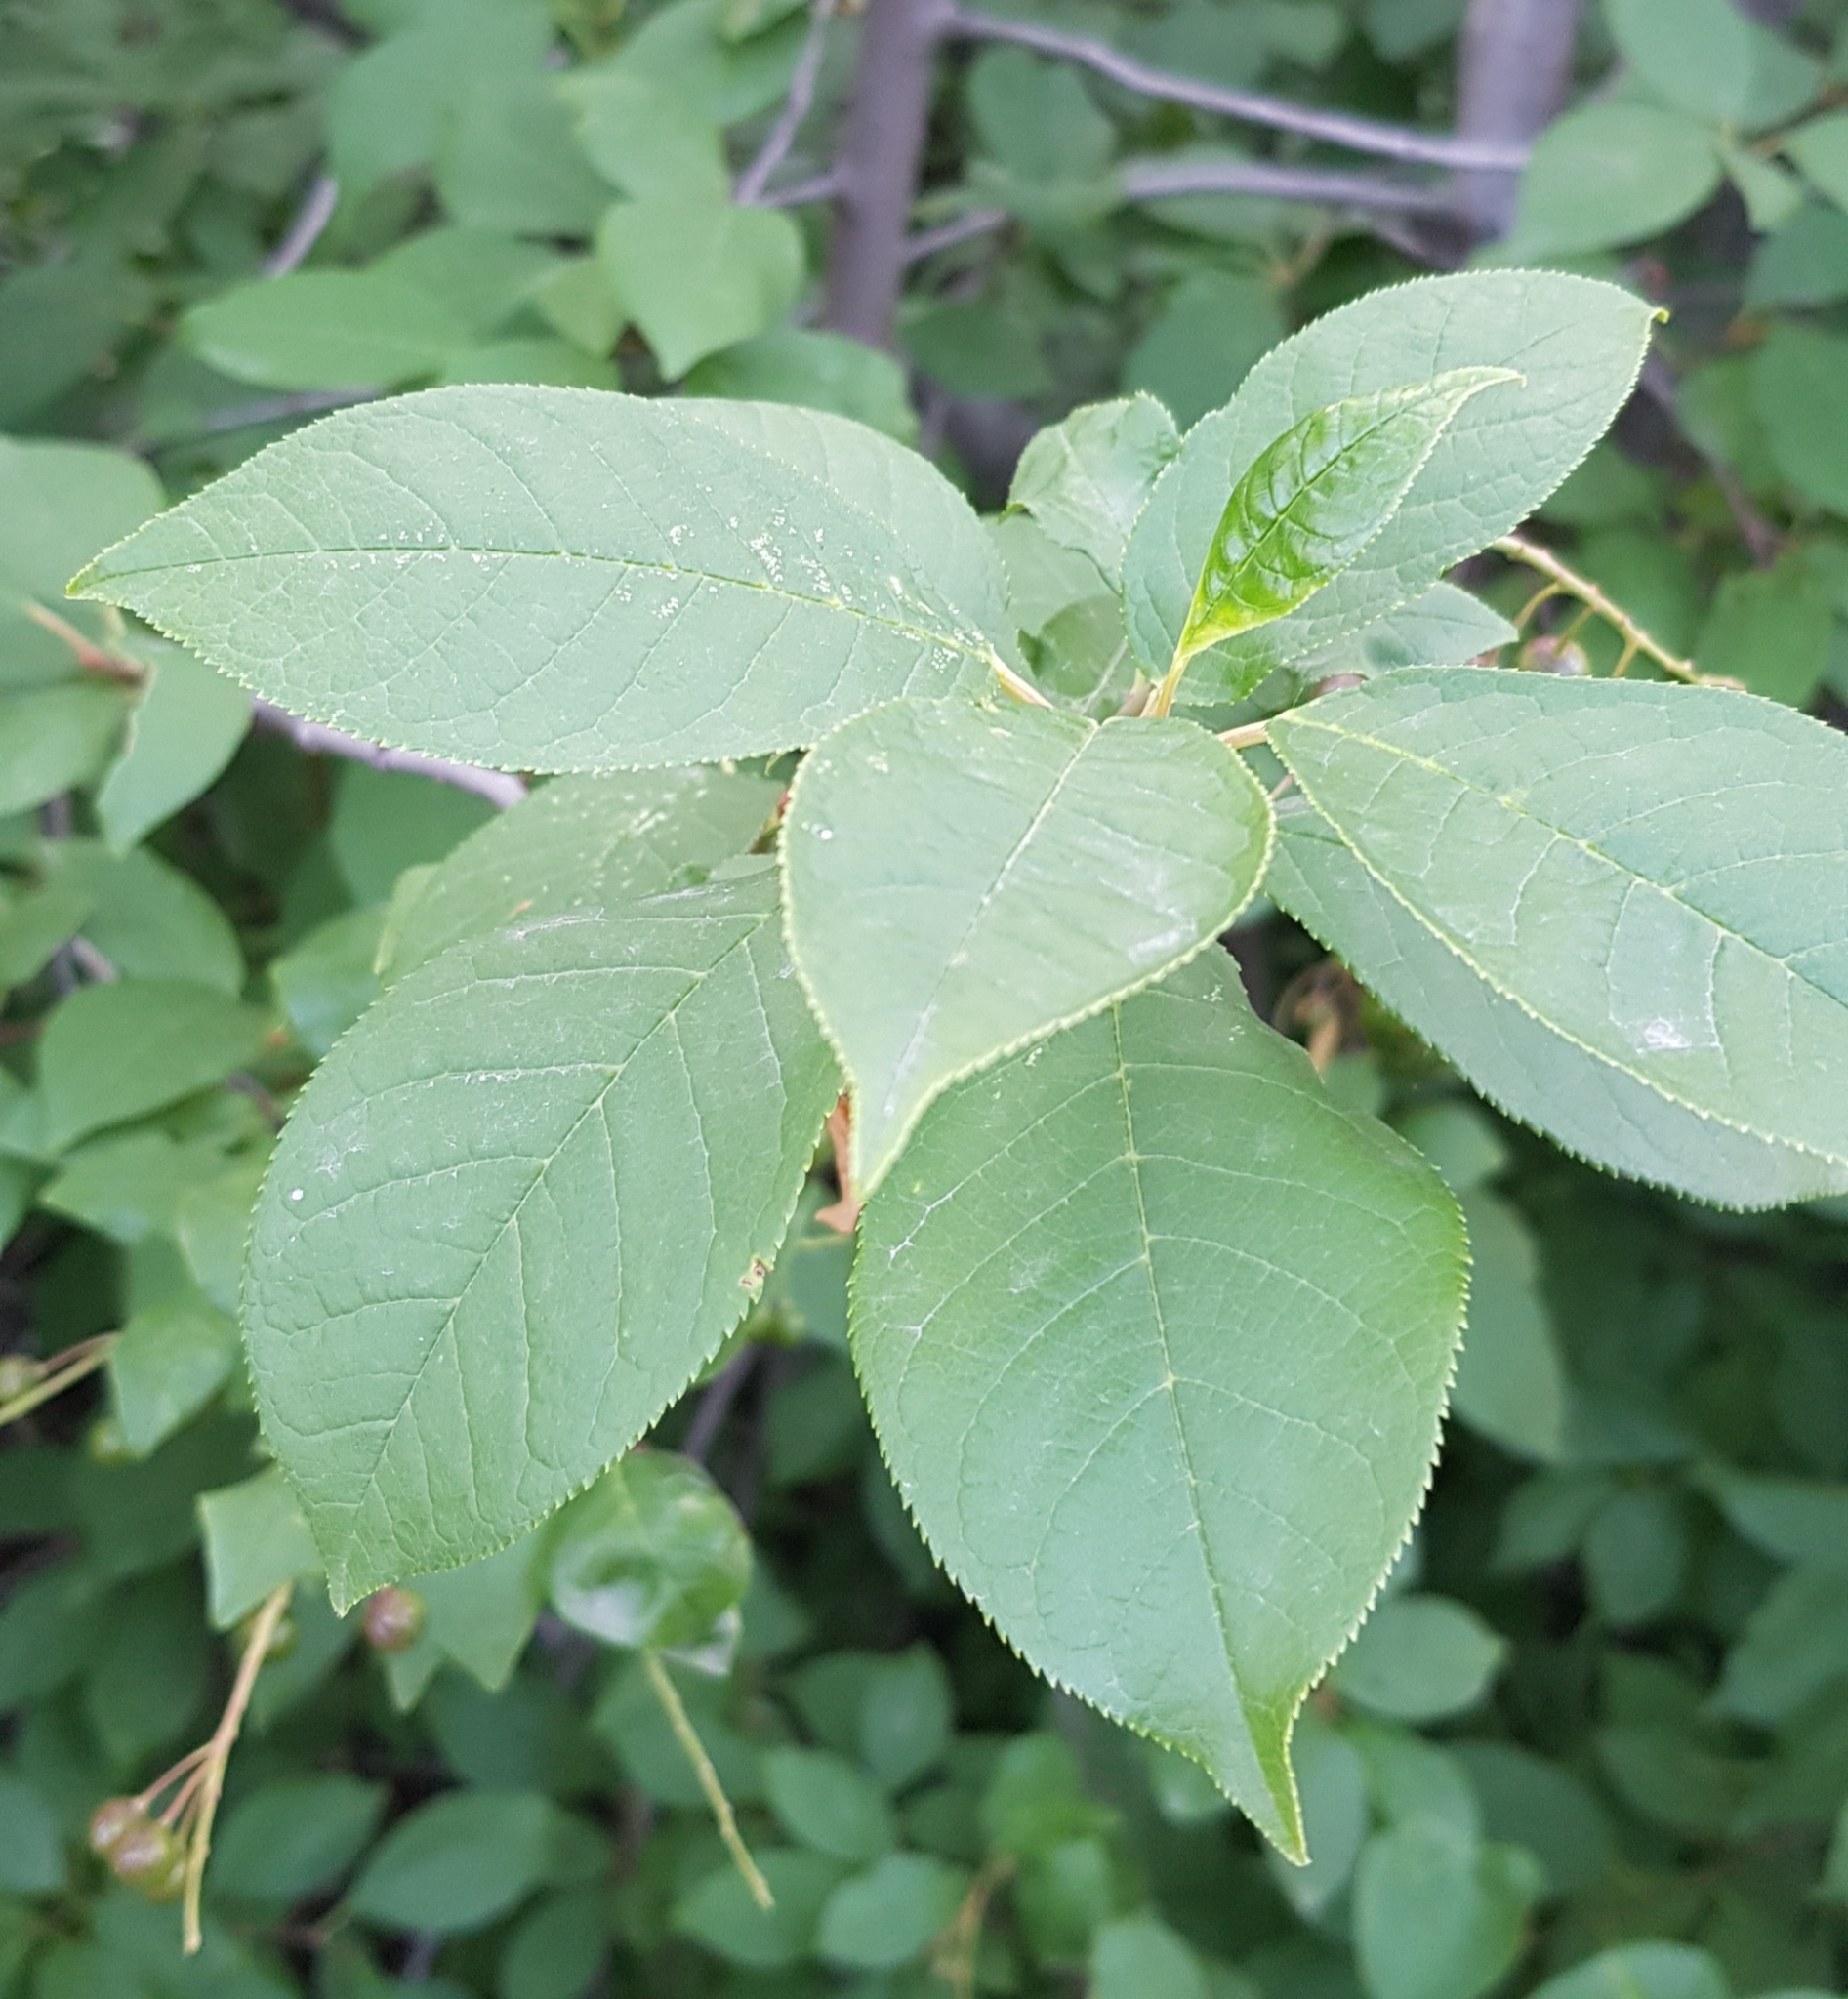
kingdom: Plantae
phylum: Tracheophyta
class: Magnoliopsida
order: Rosales
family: Rosaceae
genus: Prunus
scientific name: Prunus padus
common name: Bird cherry
